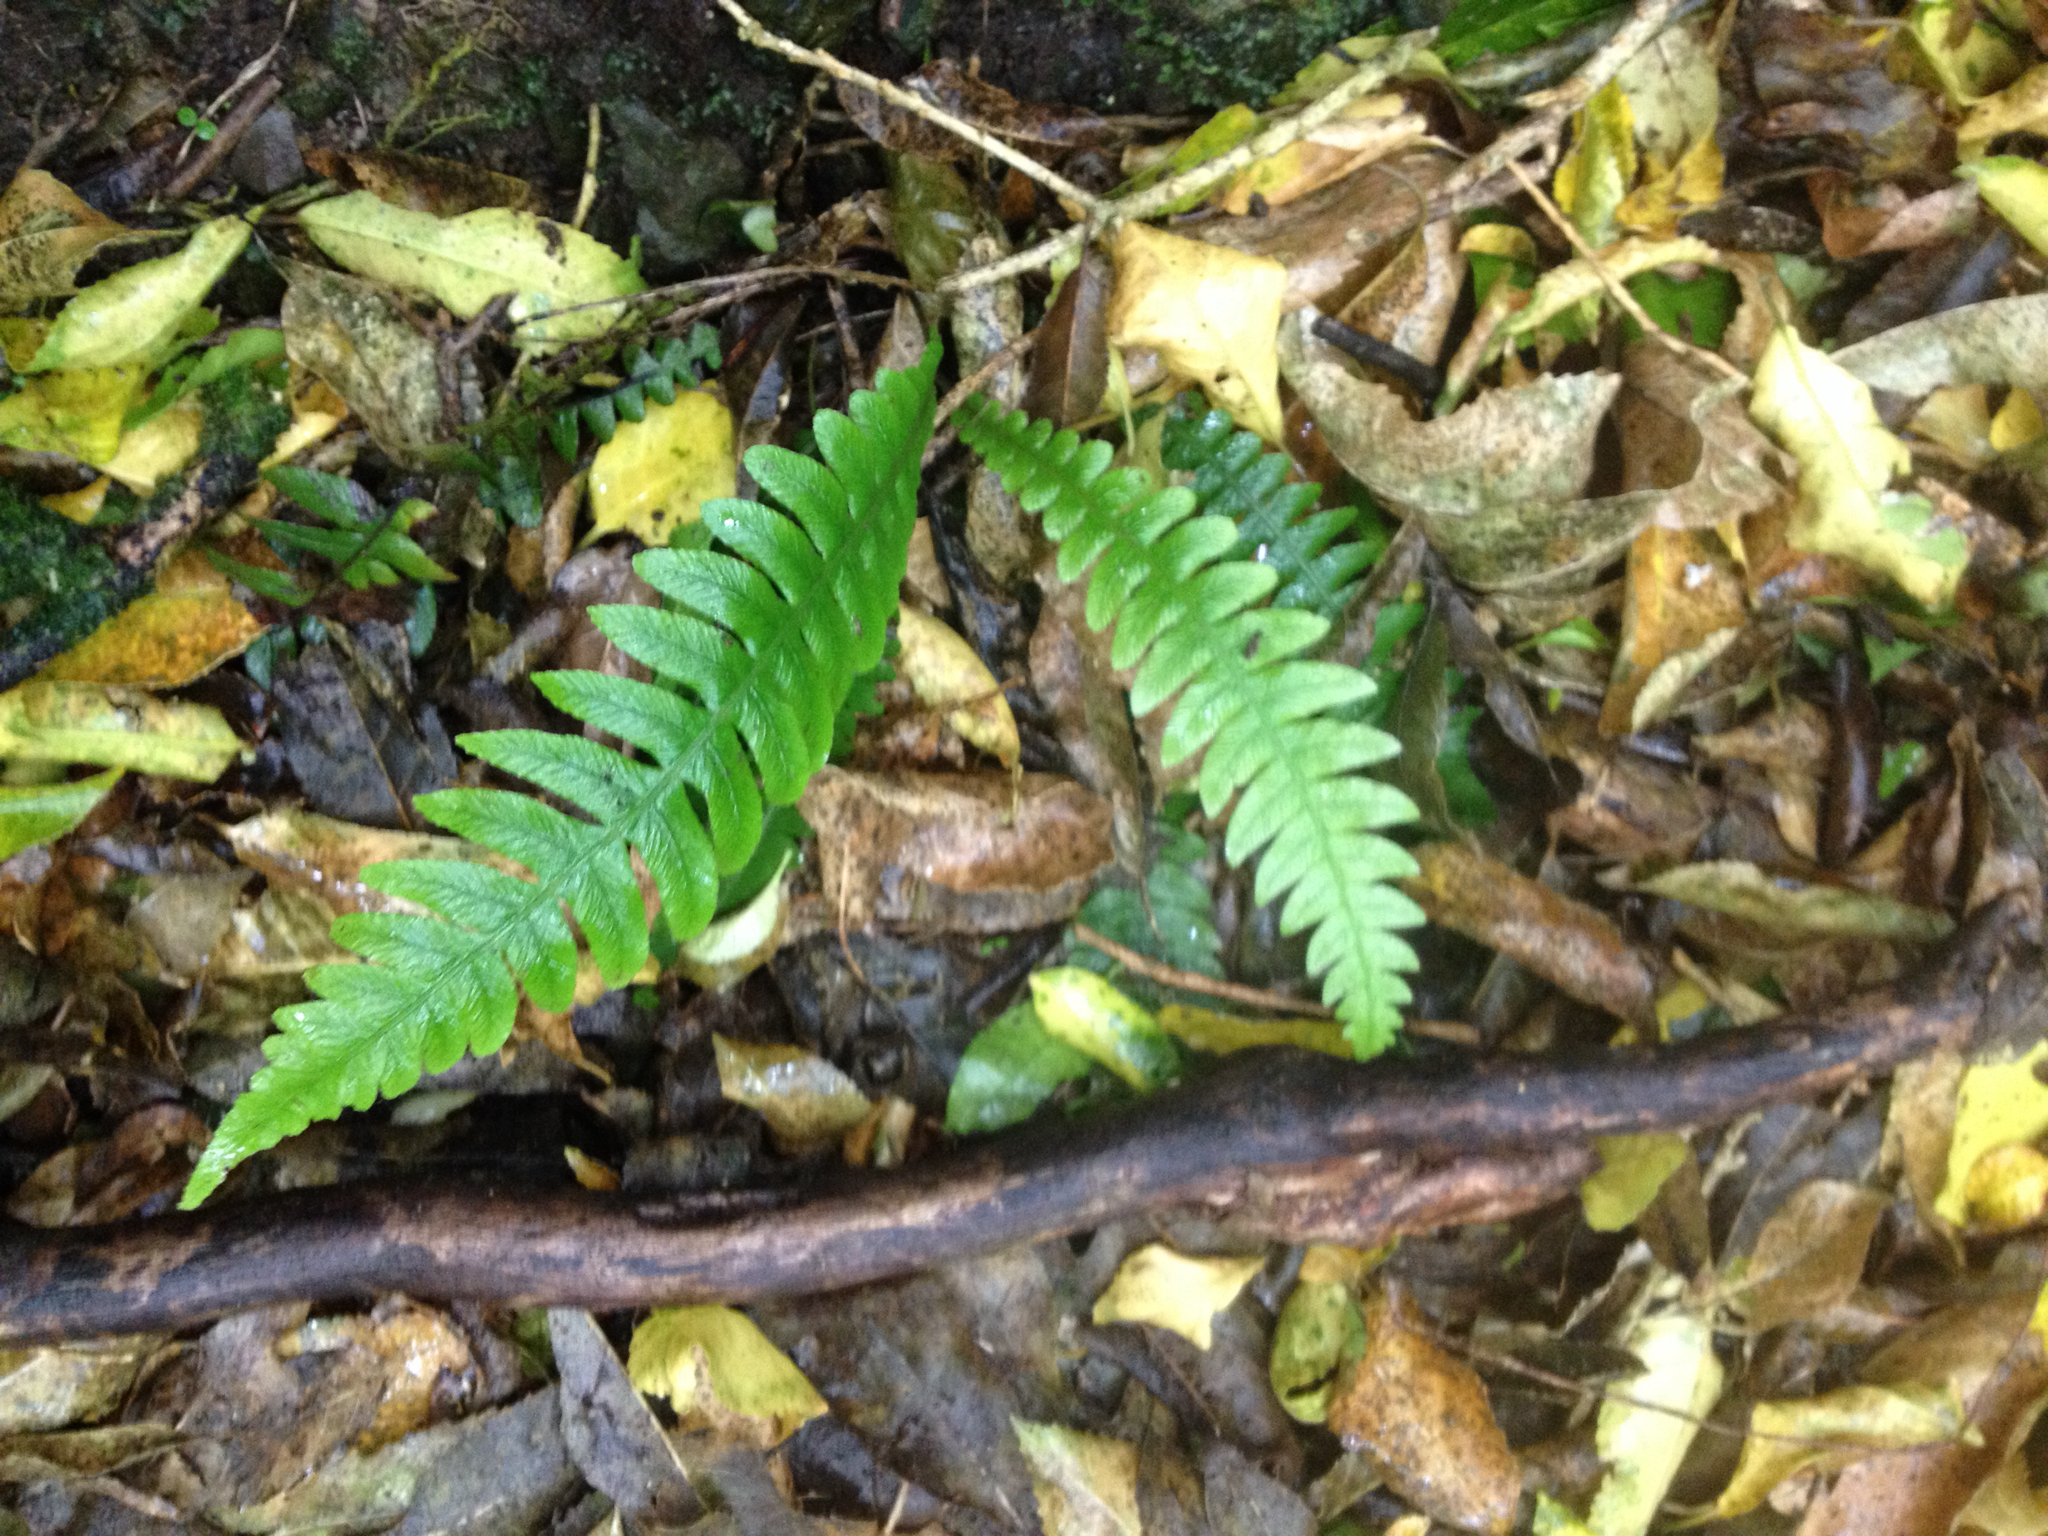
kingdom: Plantae
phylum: Tracheophyta
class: Polypodiopsida
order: Polypodiales
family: Blechnaceae
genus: Austroblechnum
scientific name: Austroblechnum lanceolatum
